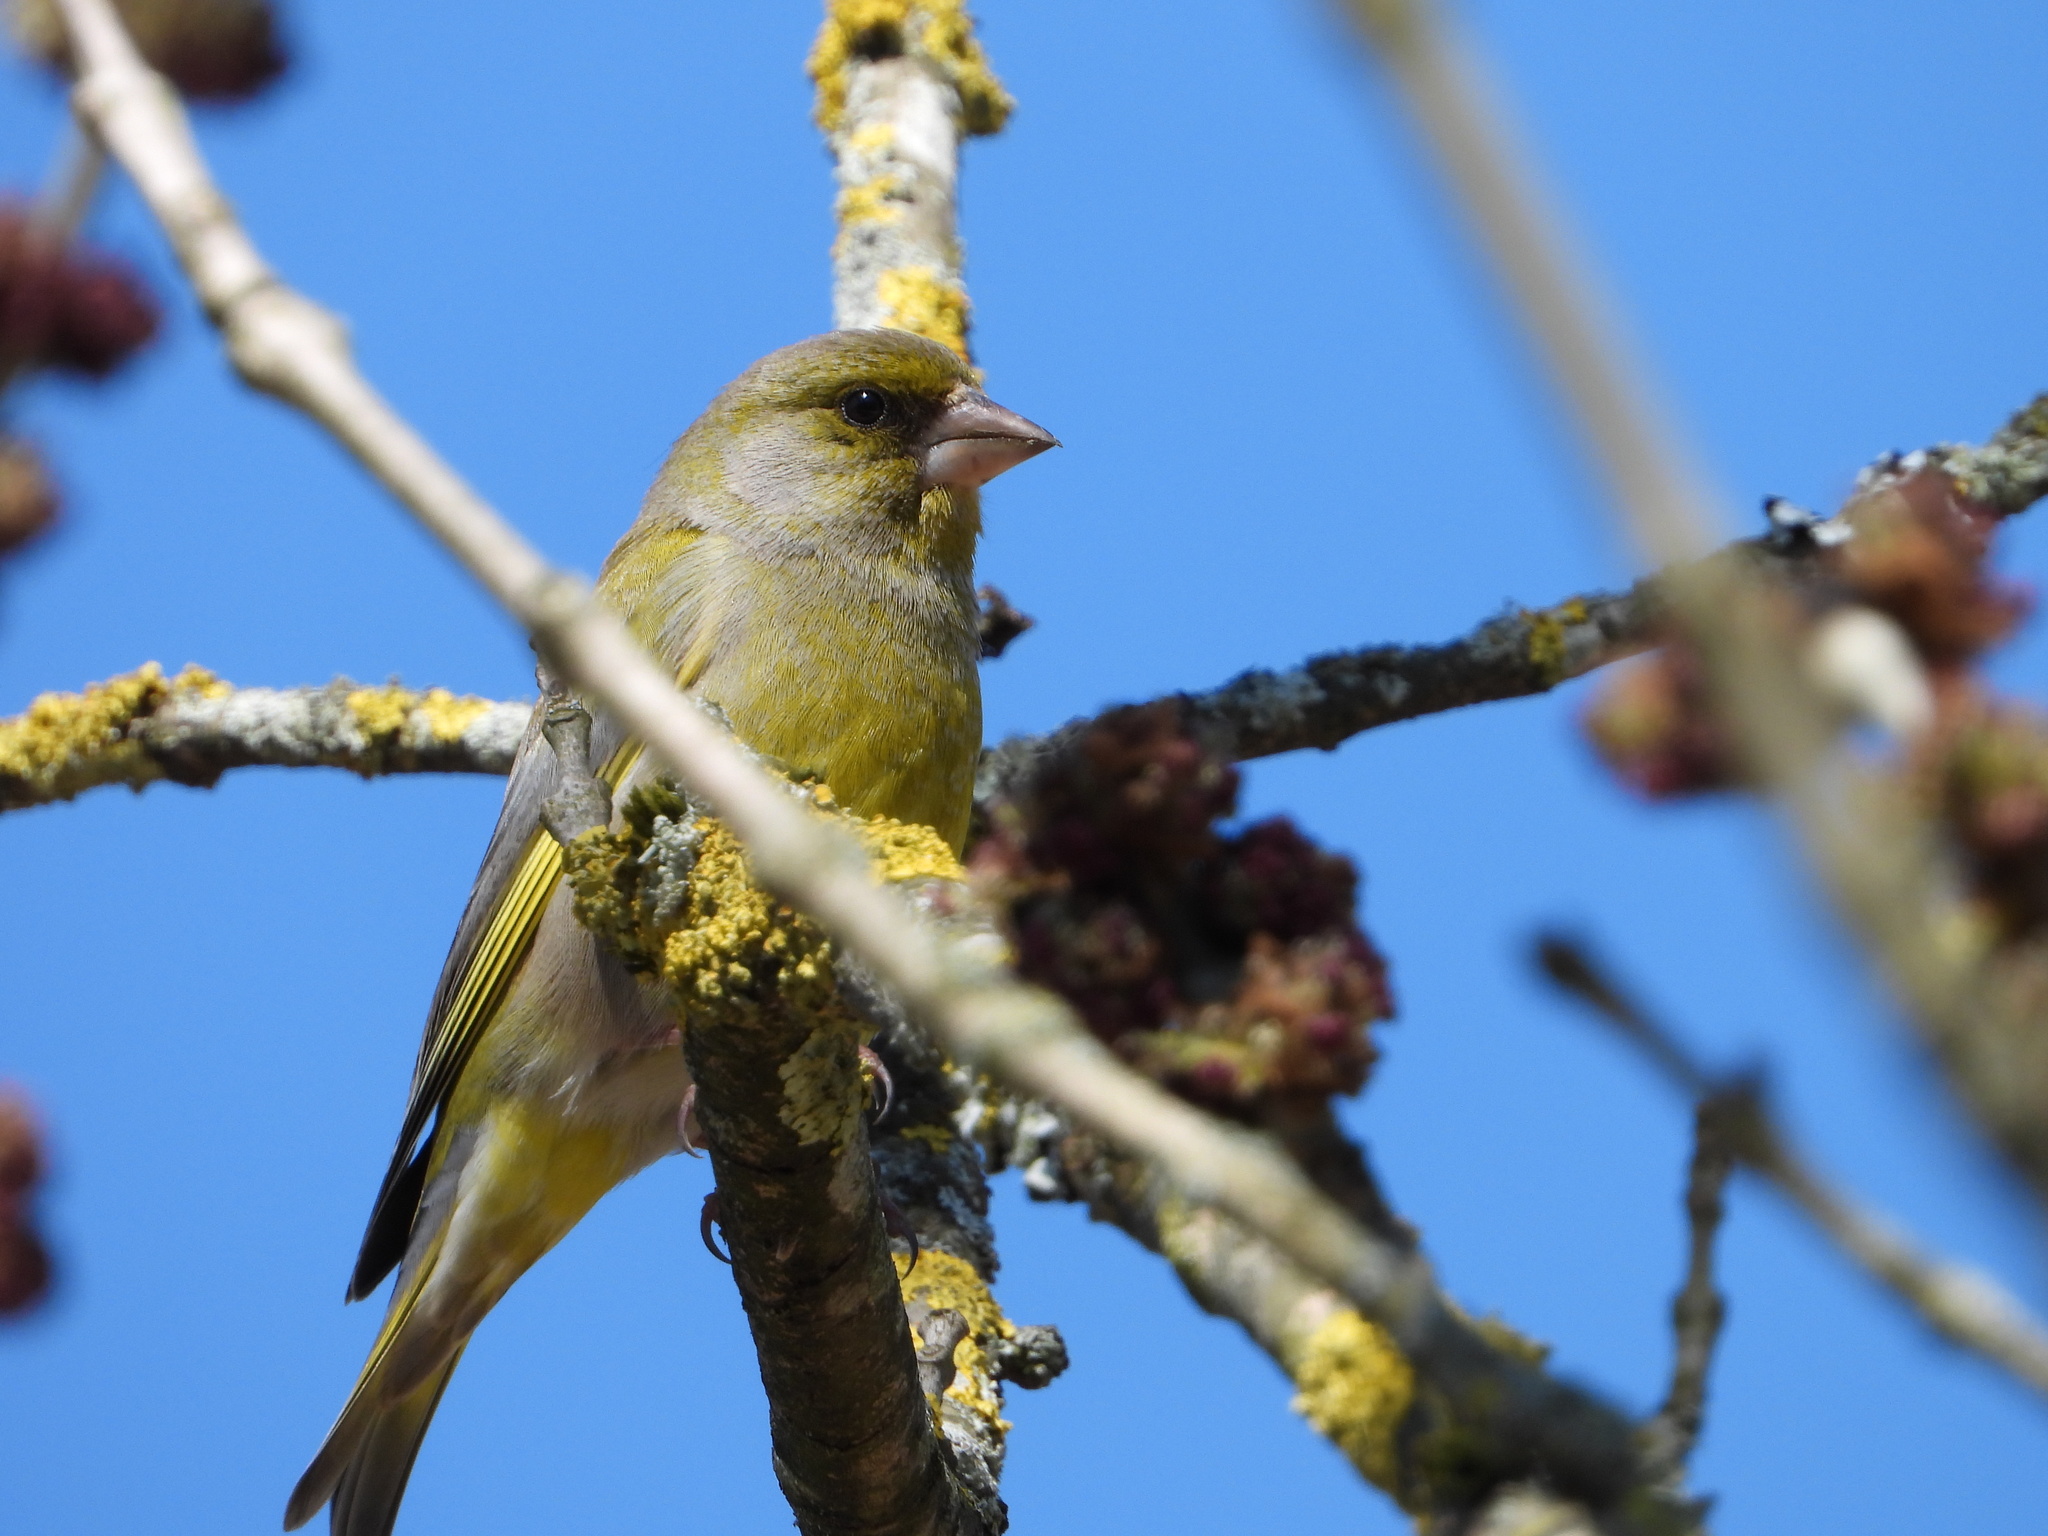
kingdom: Plantae
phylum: Tracheophyta
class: Liliopsida
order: Poales
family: Poaceae
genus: Chloris
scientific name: Chloris chloris
